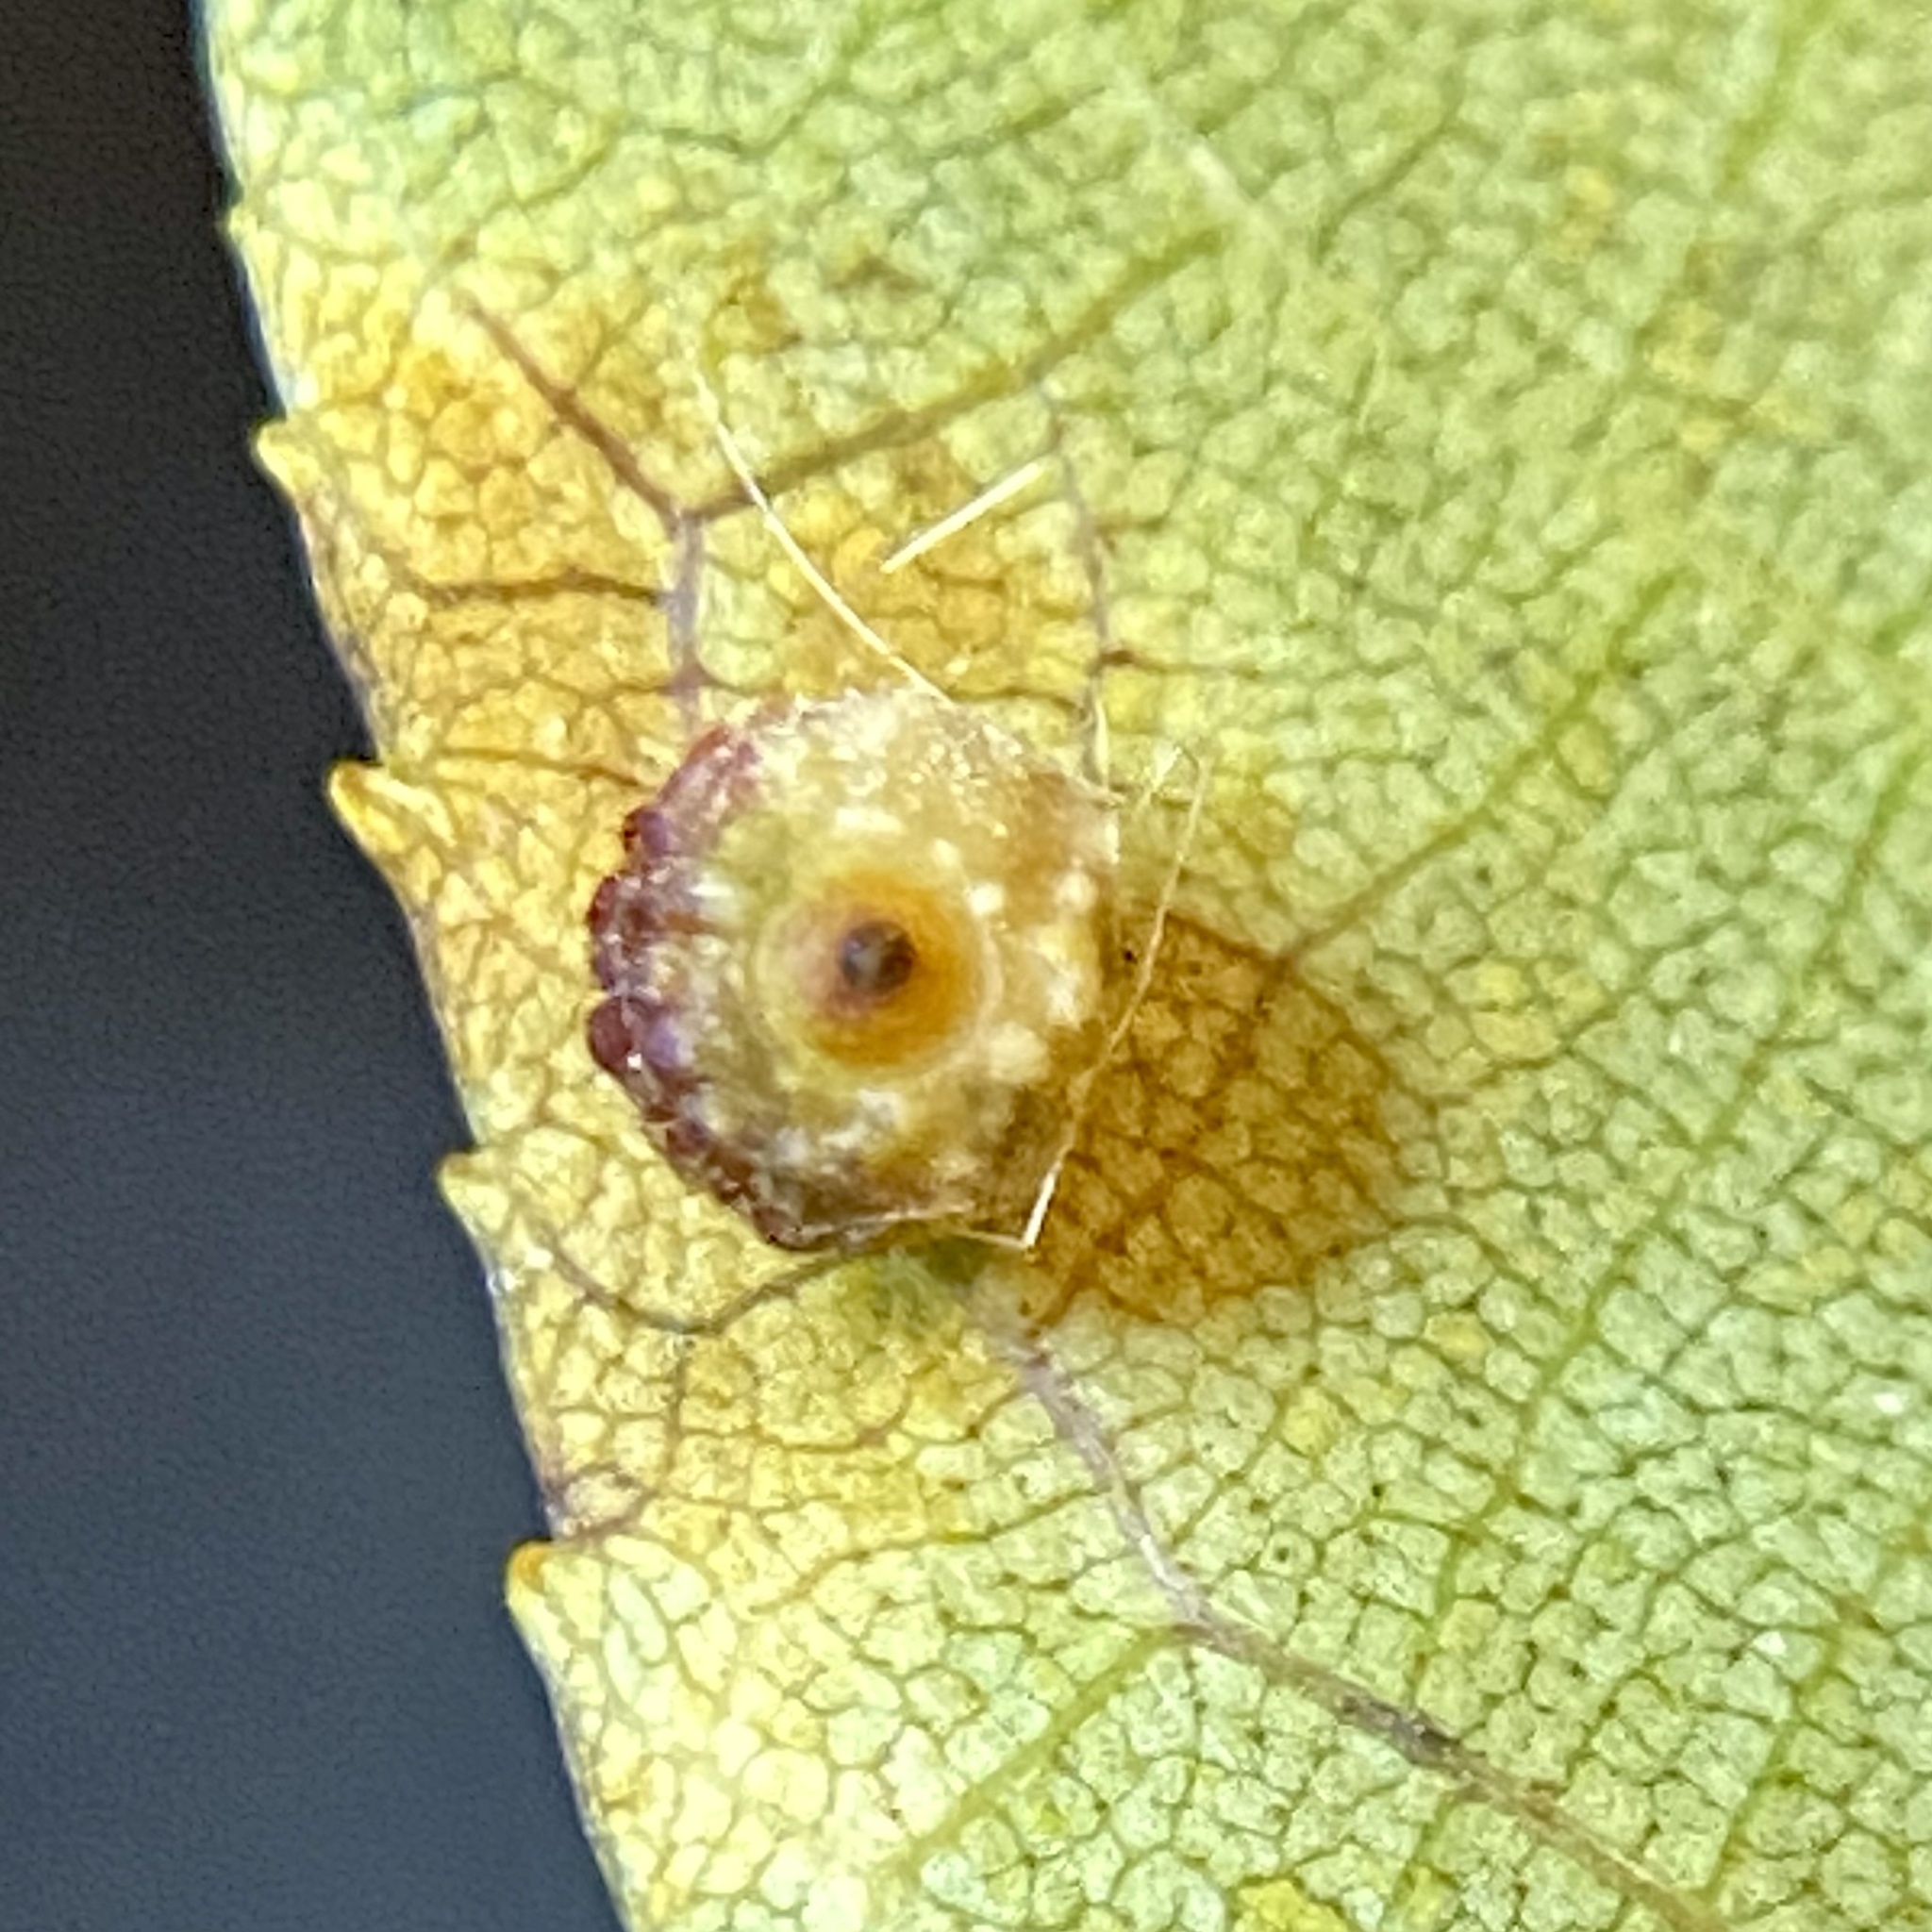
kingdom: Animalia
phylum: Arthropoda
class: Insecta
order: Diptera
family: Cecidomyiidae
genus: Caryomyia
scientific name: Caryomyia tuberidolium
